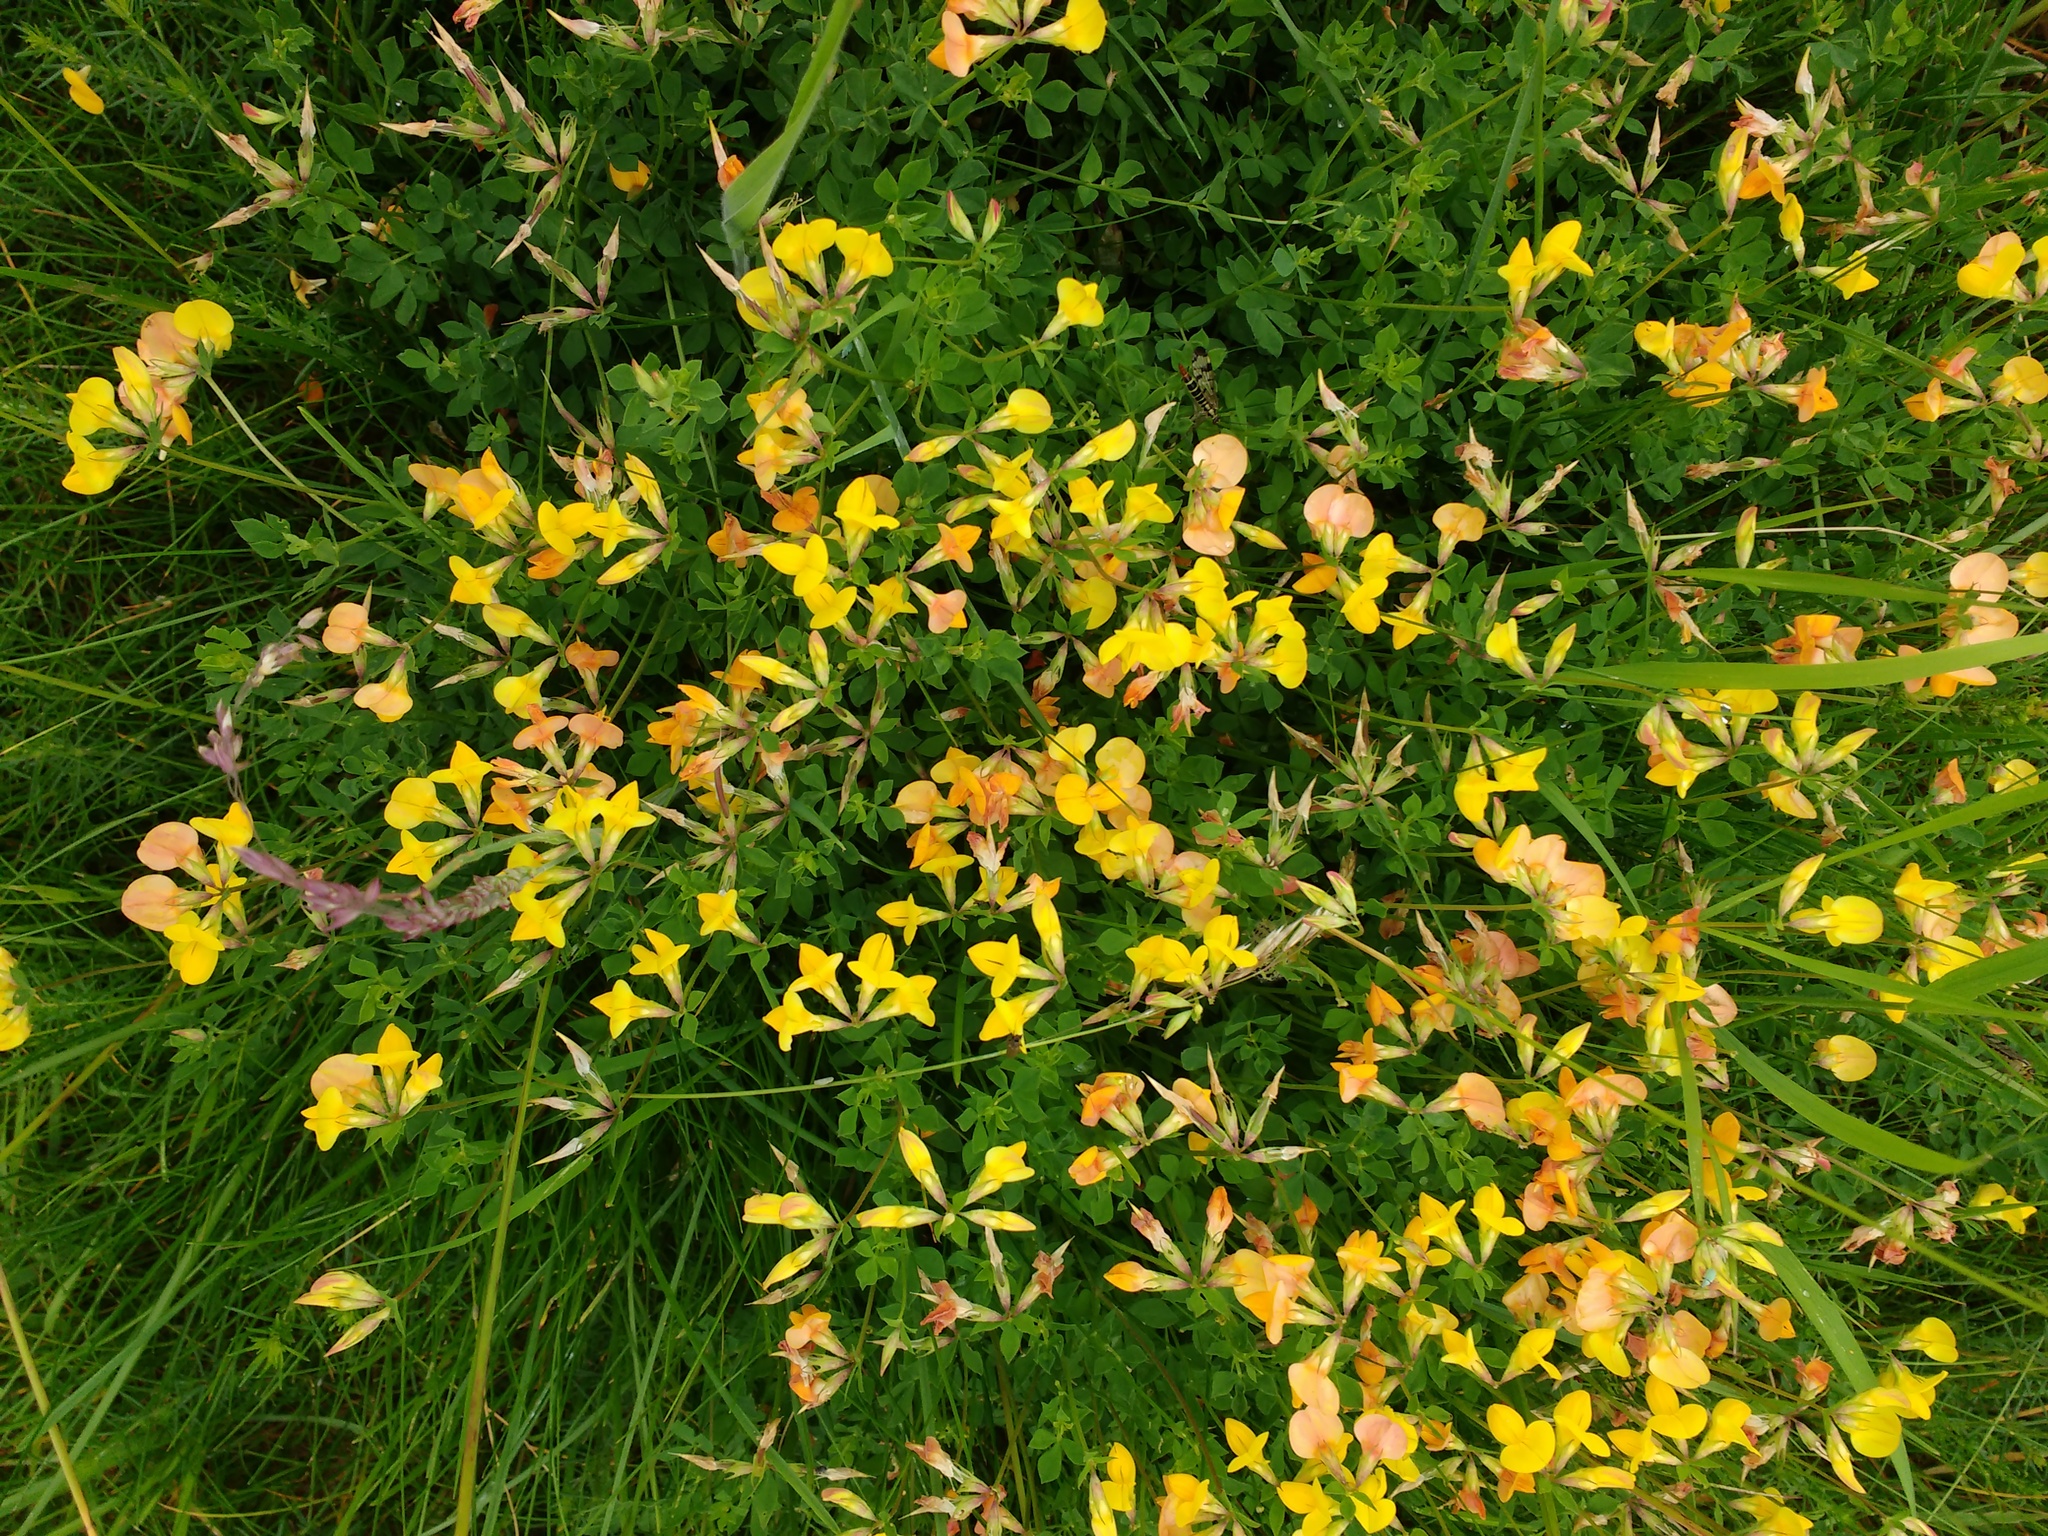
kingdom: Plantae
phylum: Tracheophyta
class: Magnoliopsida
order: Fabales
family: Fabaceae
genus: Lotus
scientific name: Lotus corniculatus
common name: Common bird's-foot-trefoil
